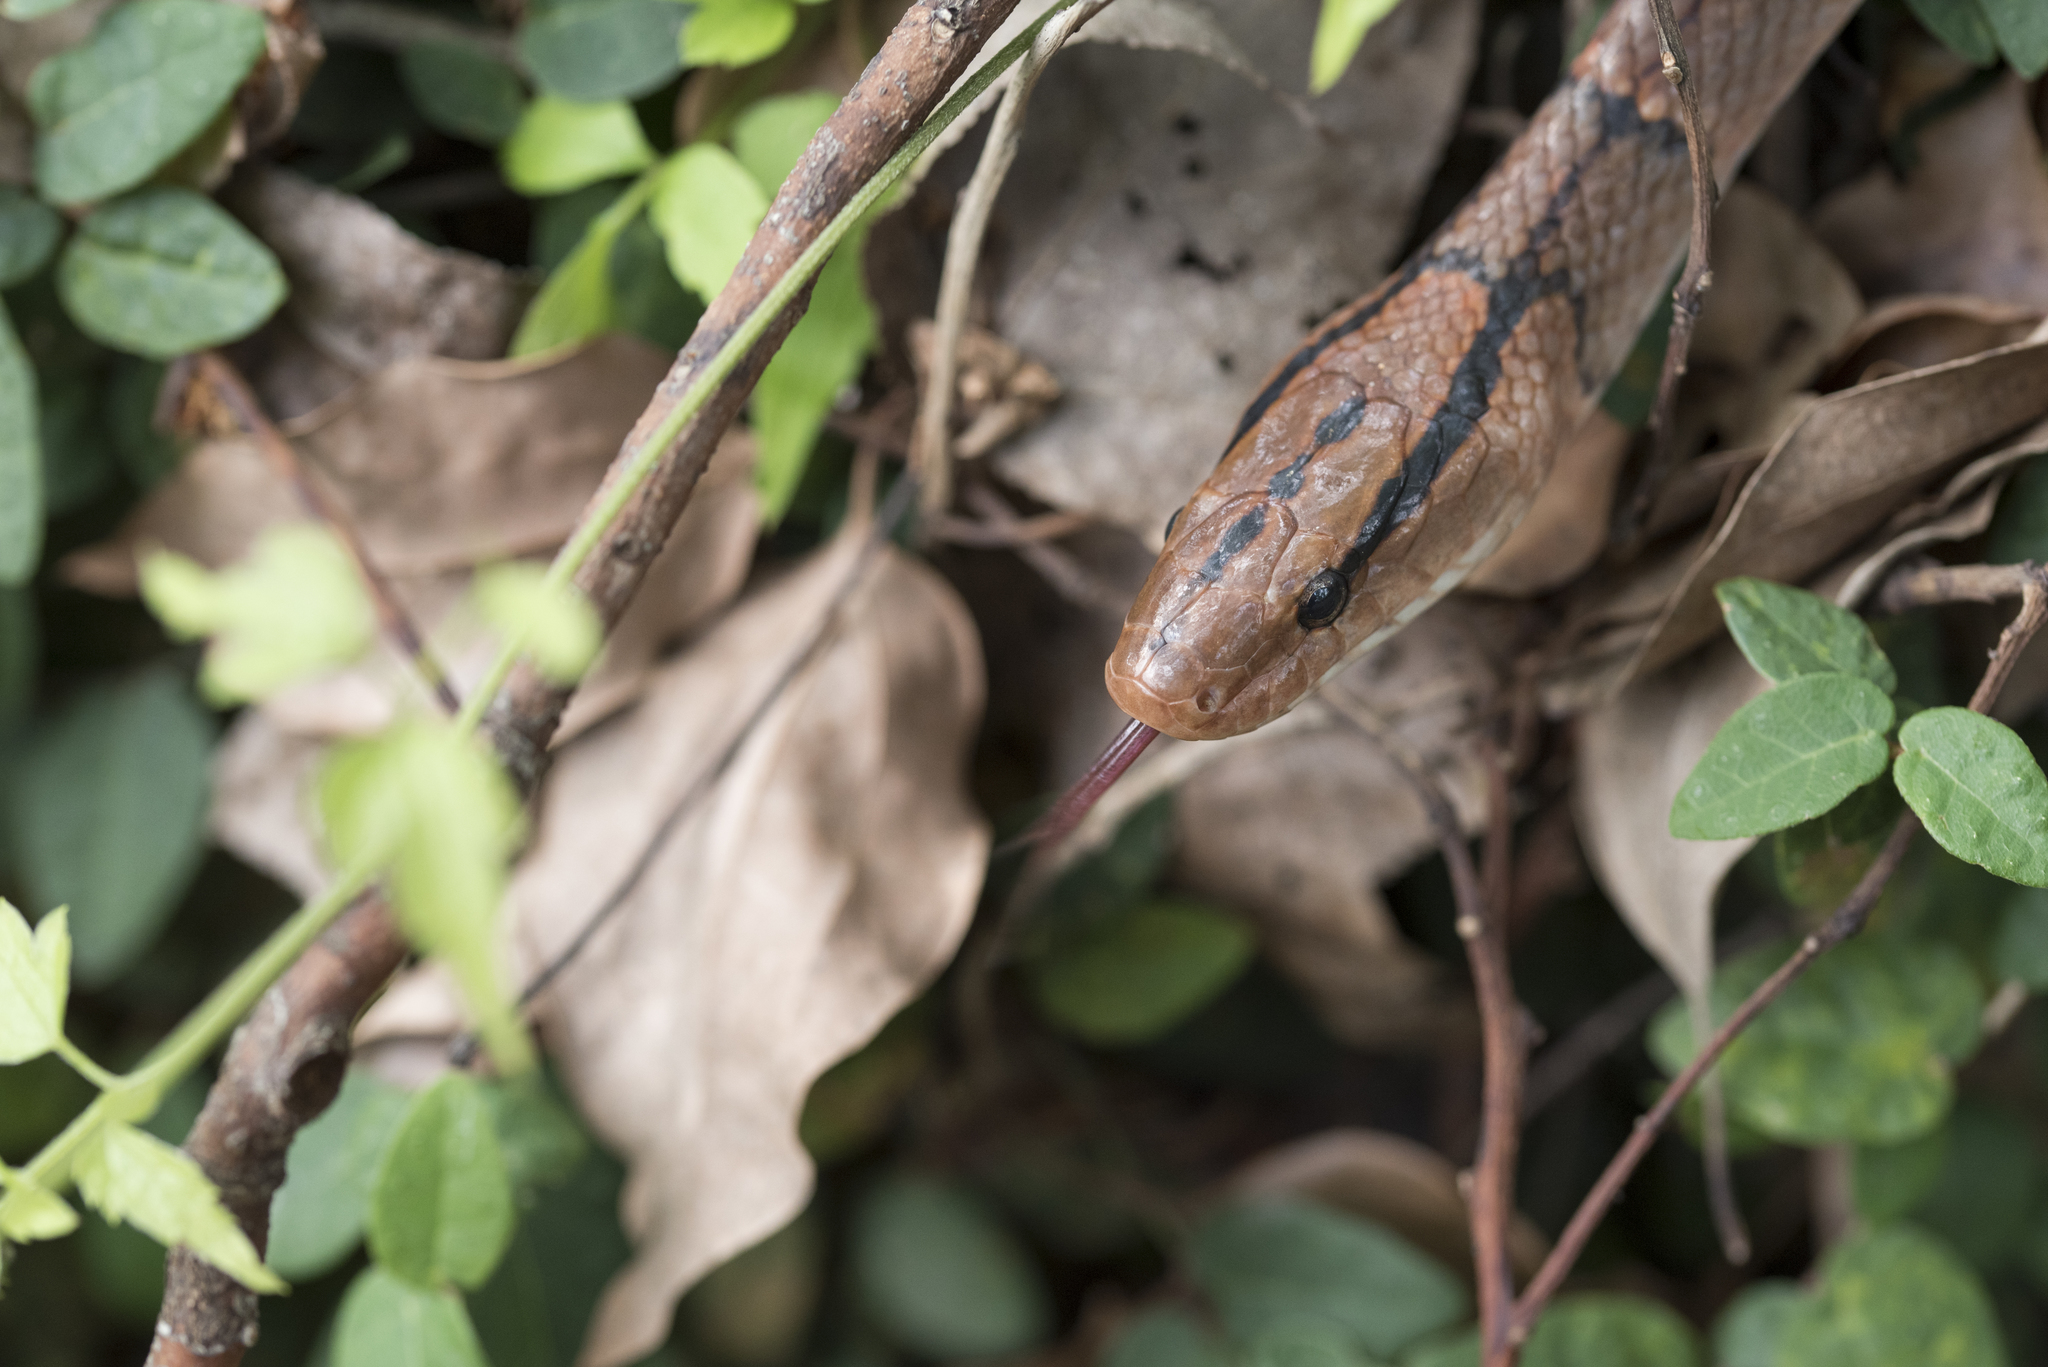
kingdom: Animalia
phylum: Chordata
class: Squamata
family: Colubridae
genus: Oreocryptophis
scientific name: Oreocryptophis porphyraceus
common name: Black-banded trinket snake
